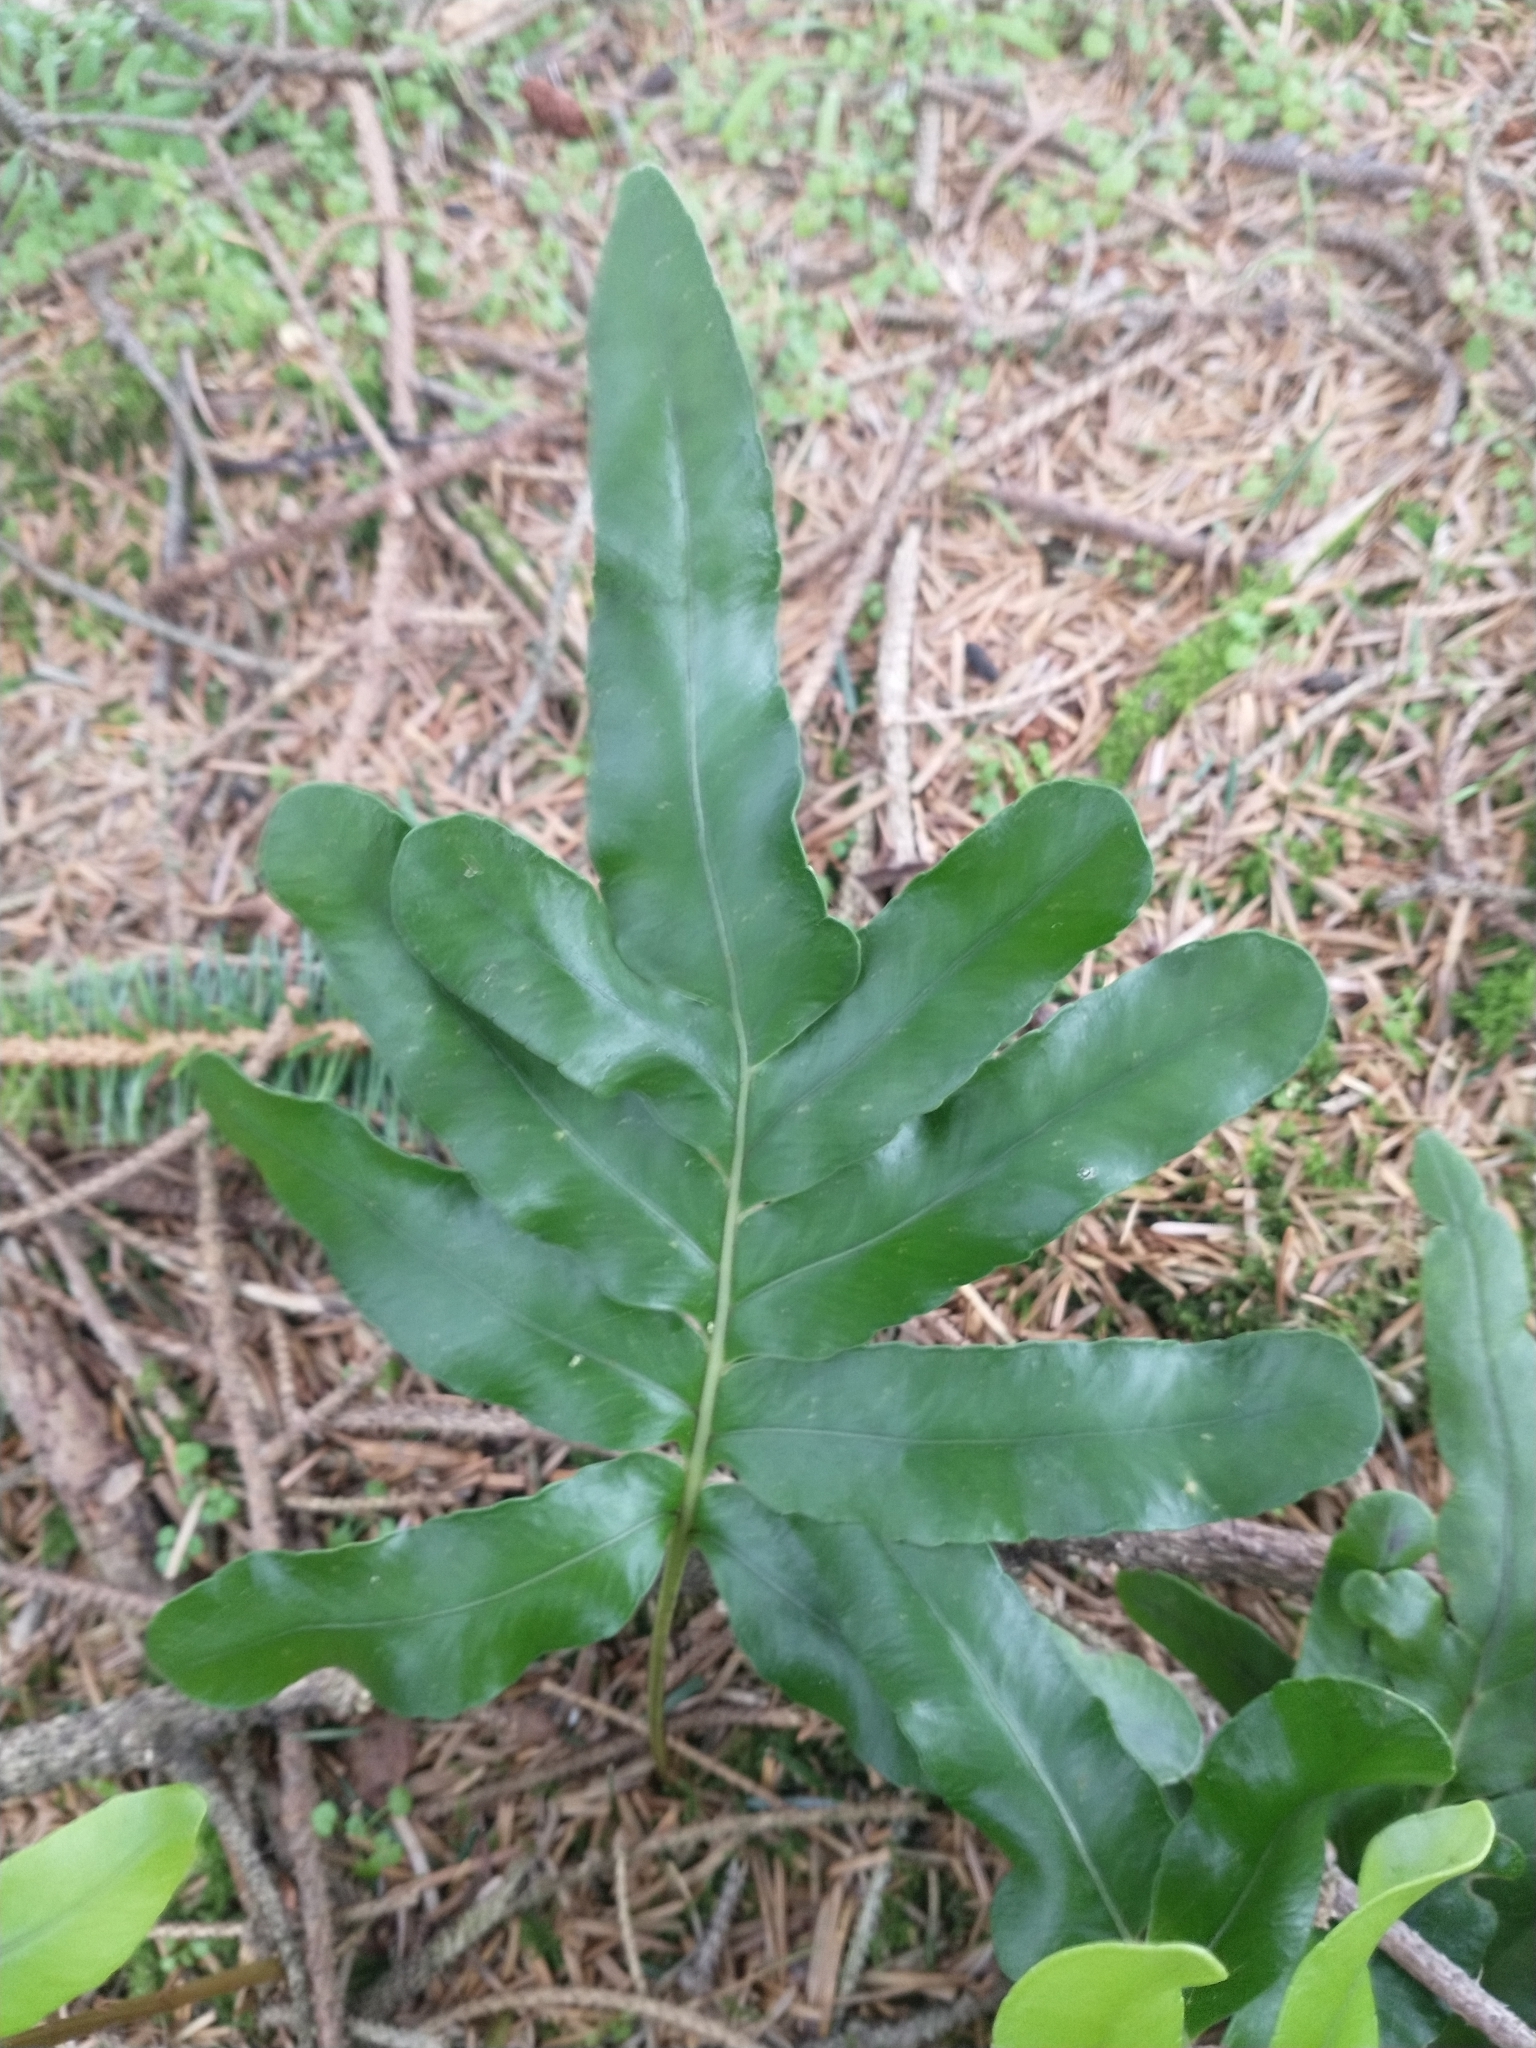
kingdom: Plantae
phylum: Tracheophyta
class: Polypodiopsida
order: Polypodiales
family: Polypodiaceae
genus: Polypodium
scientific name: Polypodium scouleri
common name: Scouler's polypody
